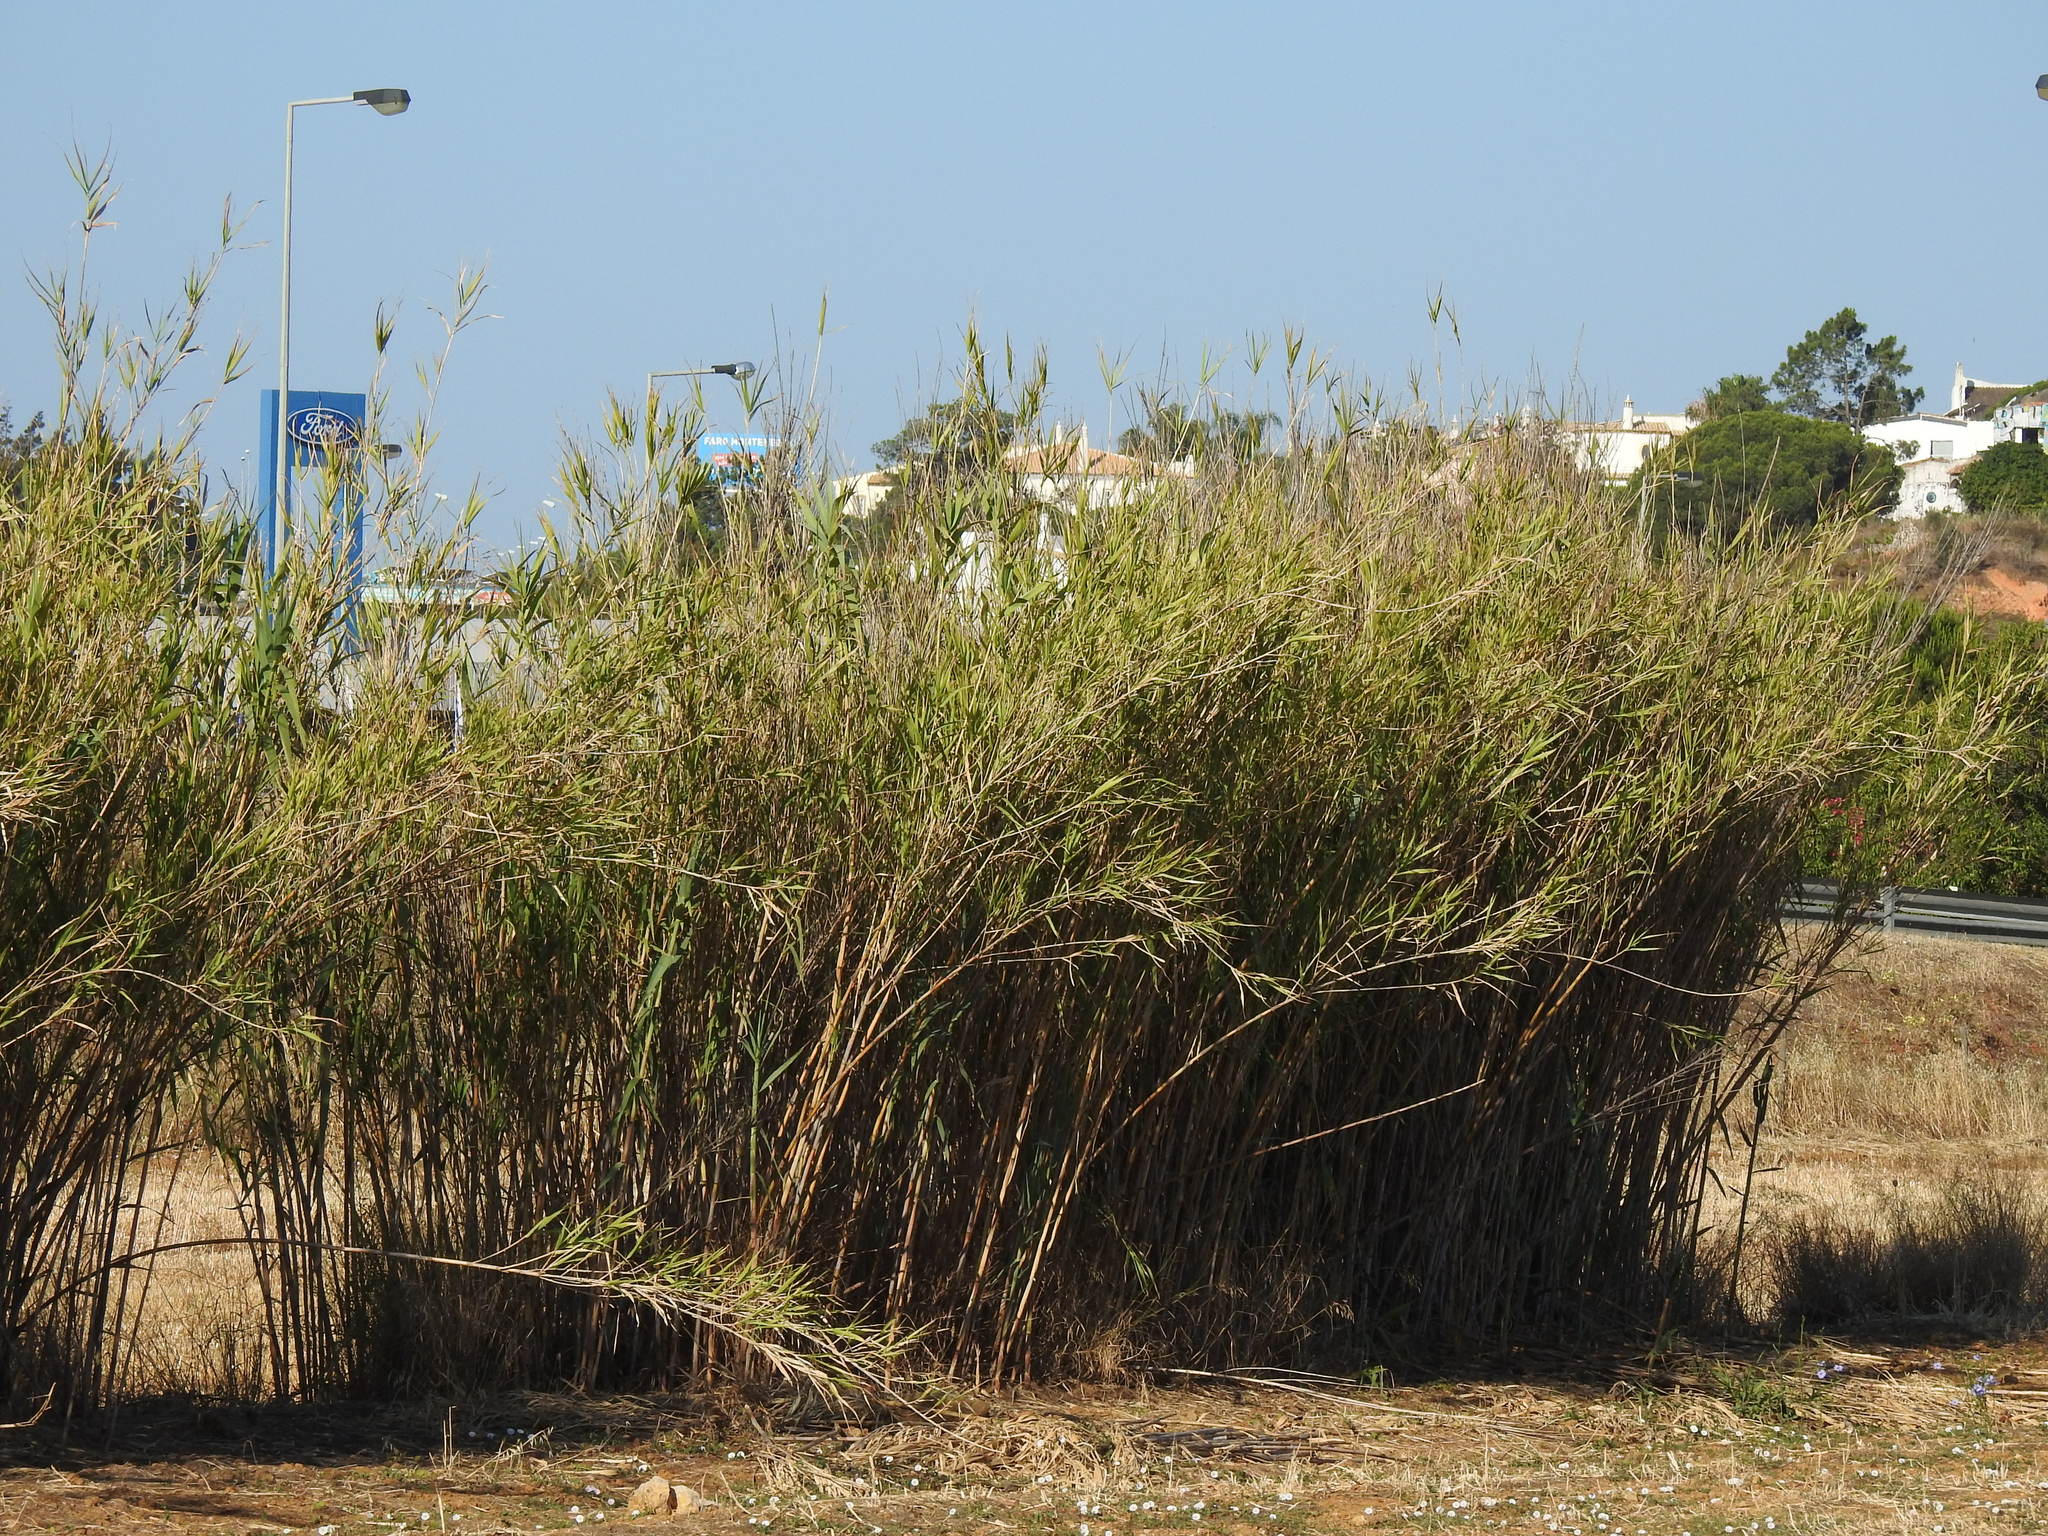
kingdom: Plantae
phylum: Tracheophyta
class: Liliopsida
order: Poales
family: Poaceae
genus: Arundo
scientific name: Arundo donax
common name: Giant reed
